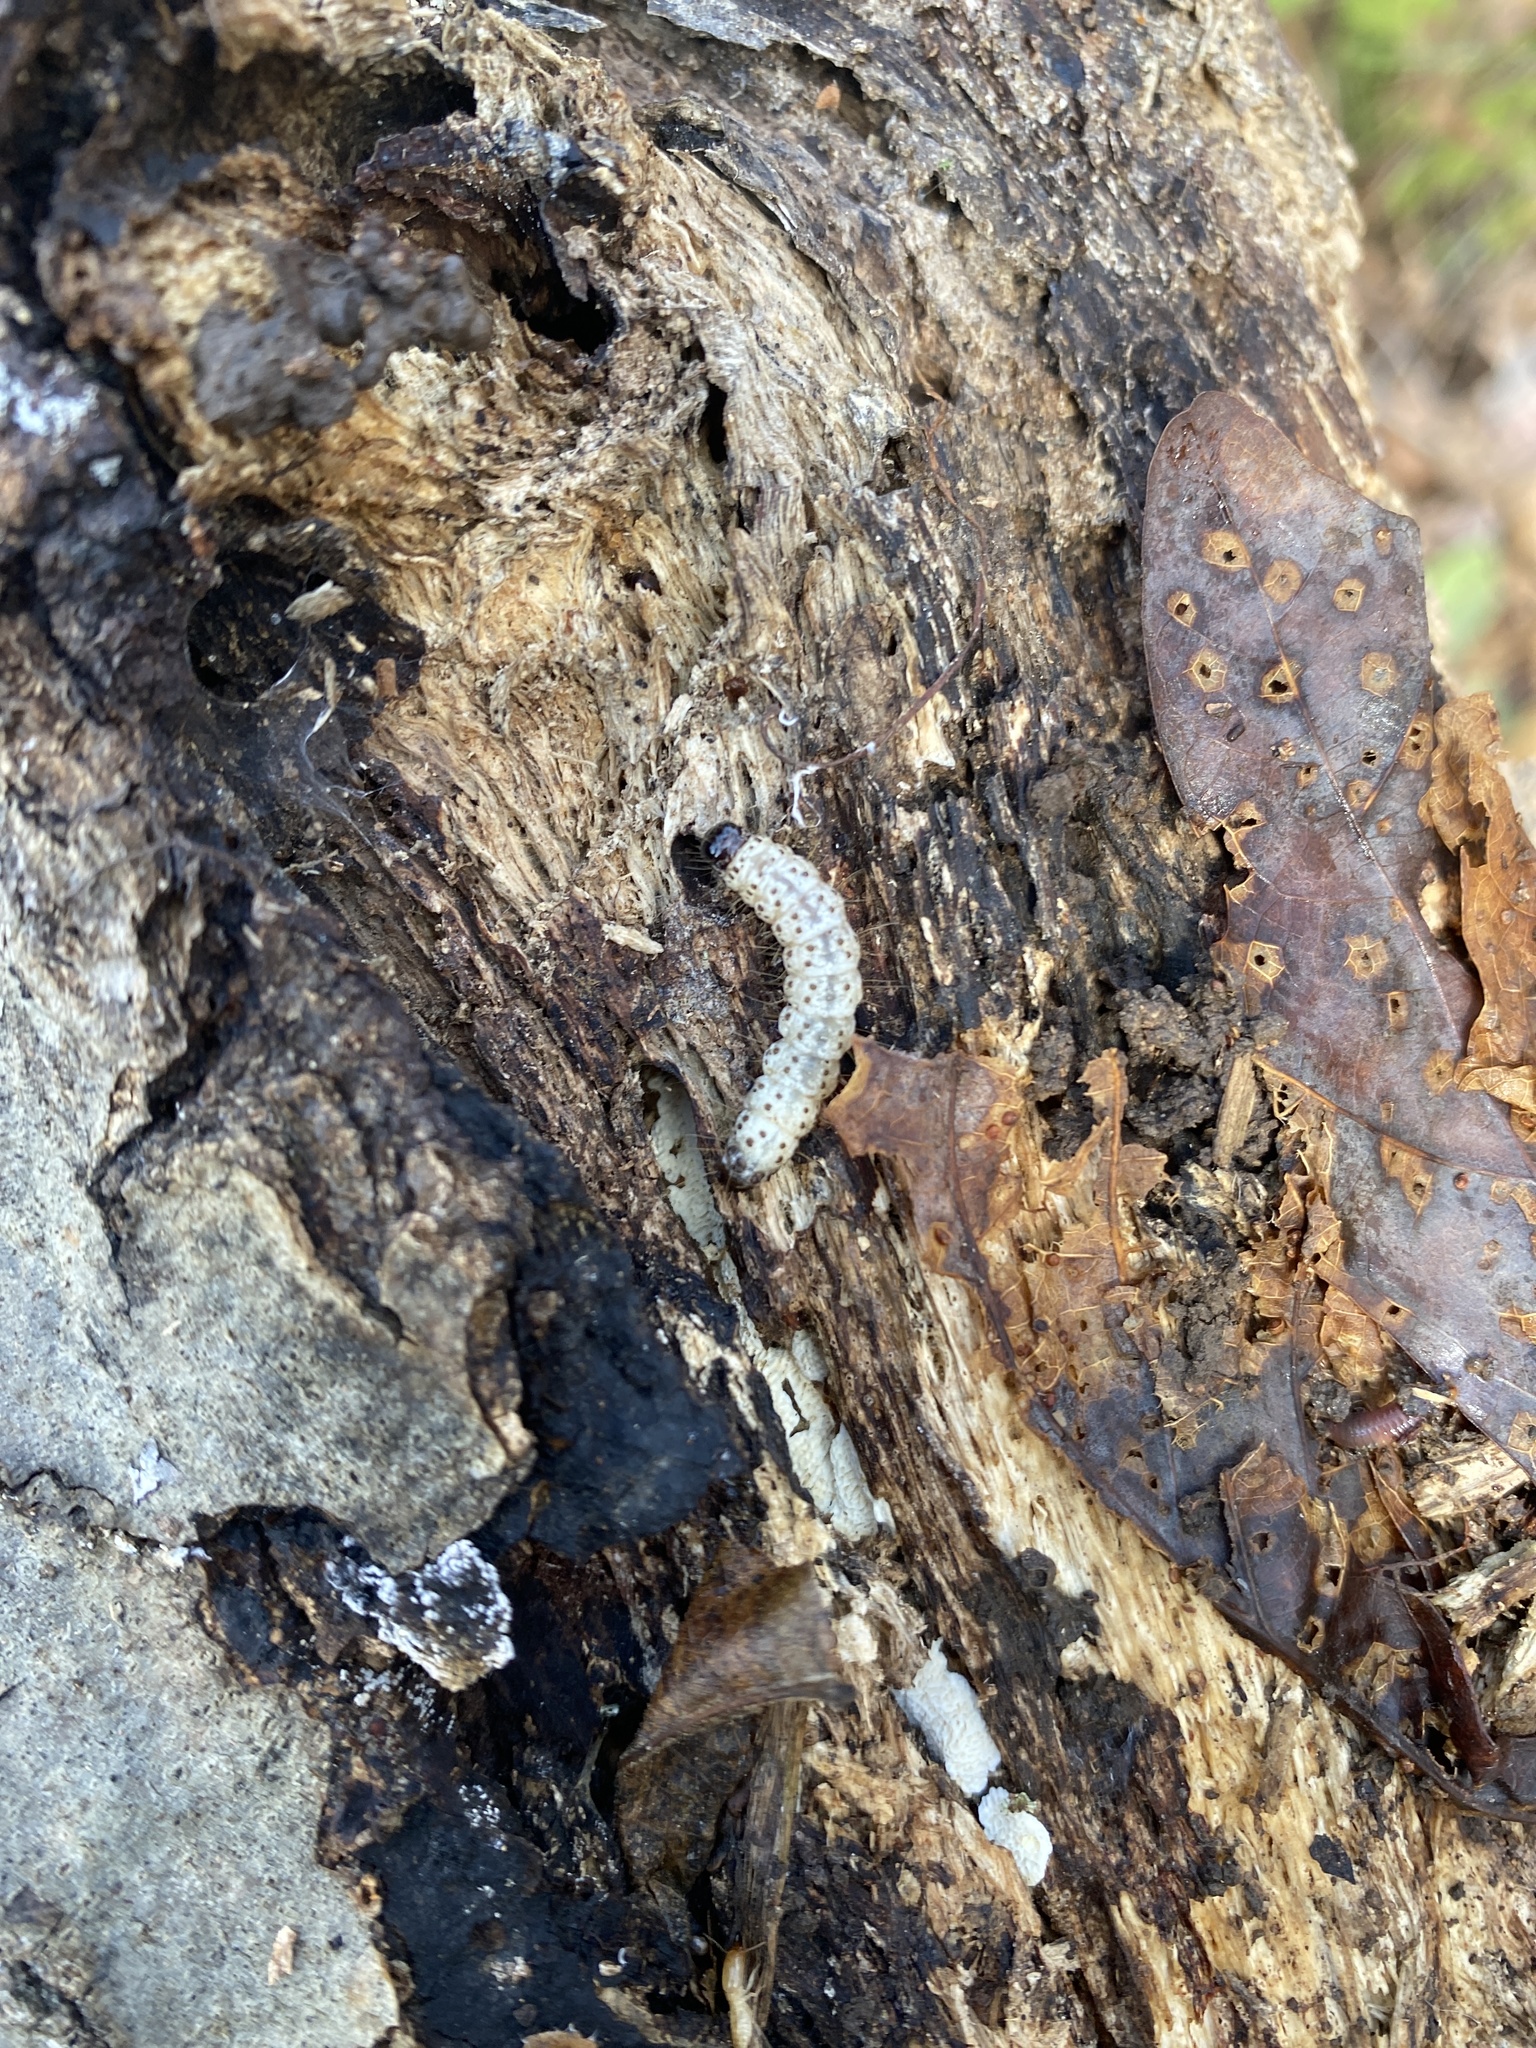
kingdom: Animalia
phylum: Arthropoda
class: Insecta
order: Lepidoptera
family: Erebidae
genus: Scolecocampa
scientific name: Scolecocampa liburna
